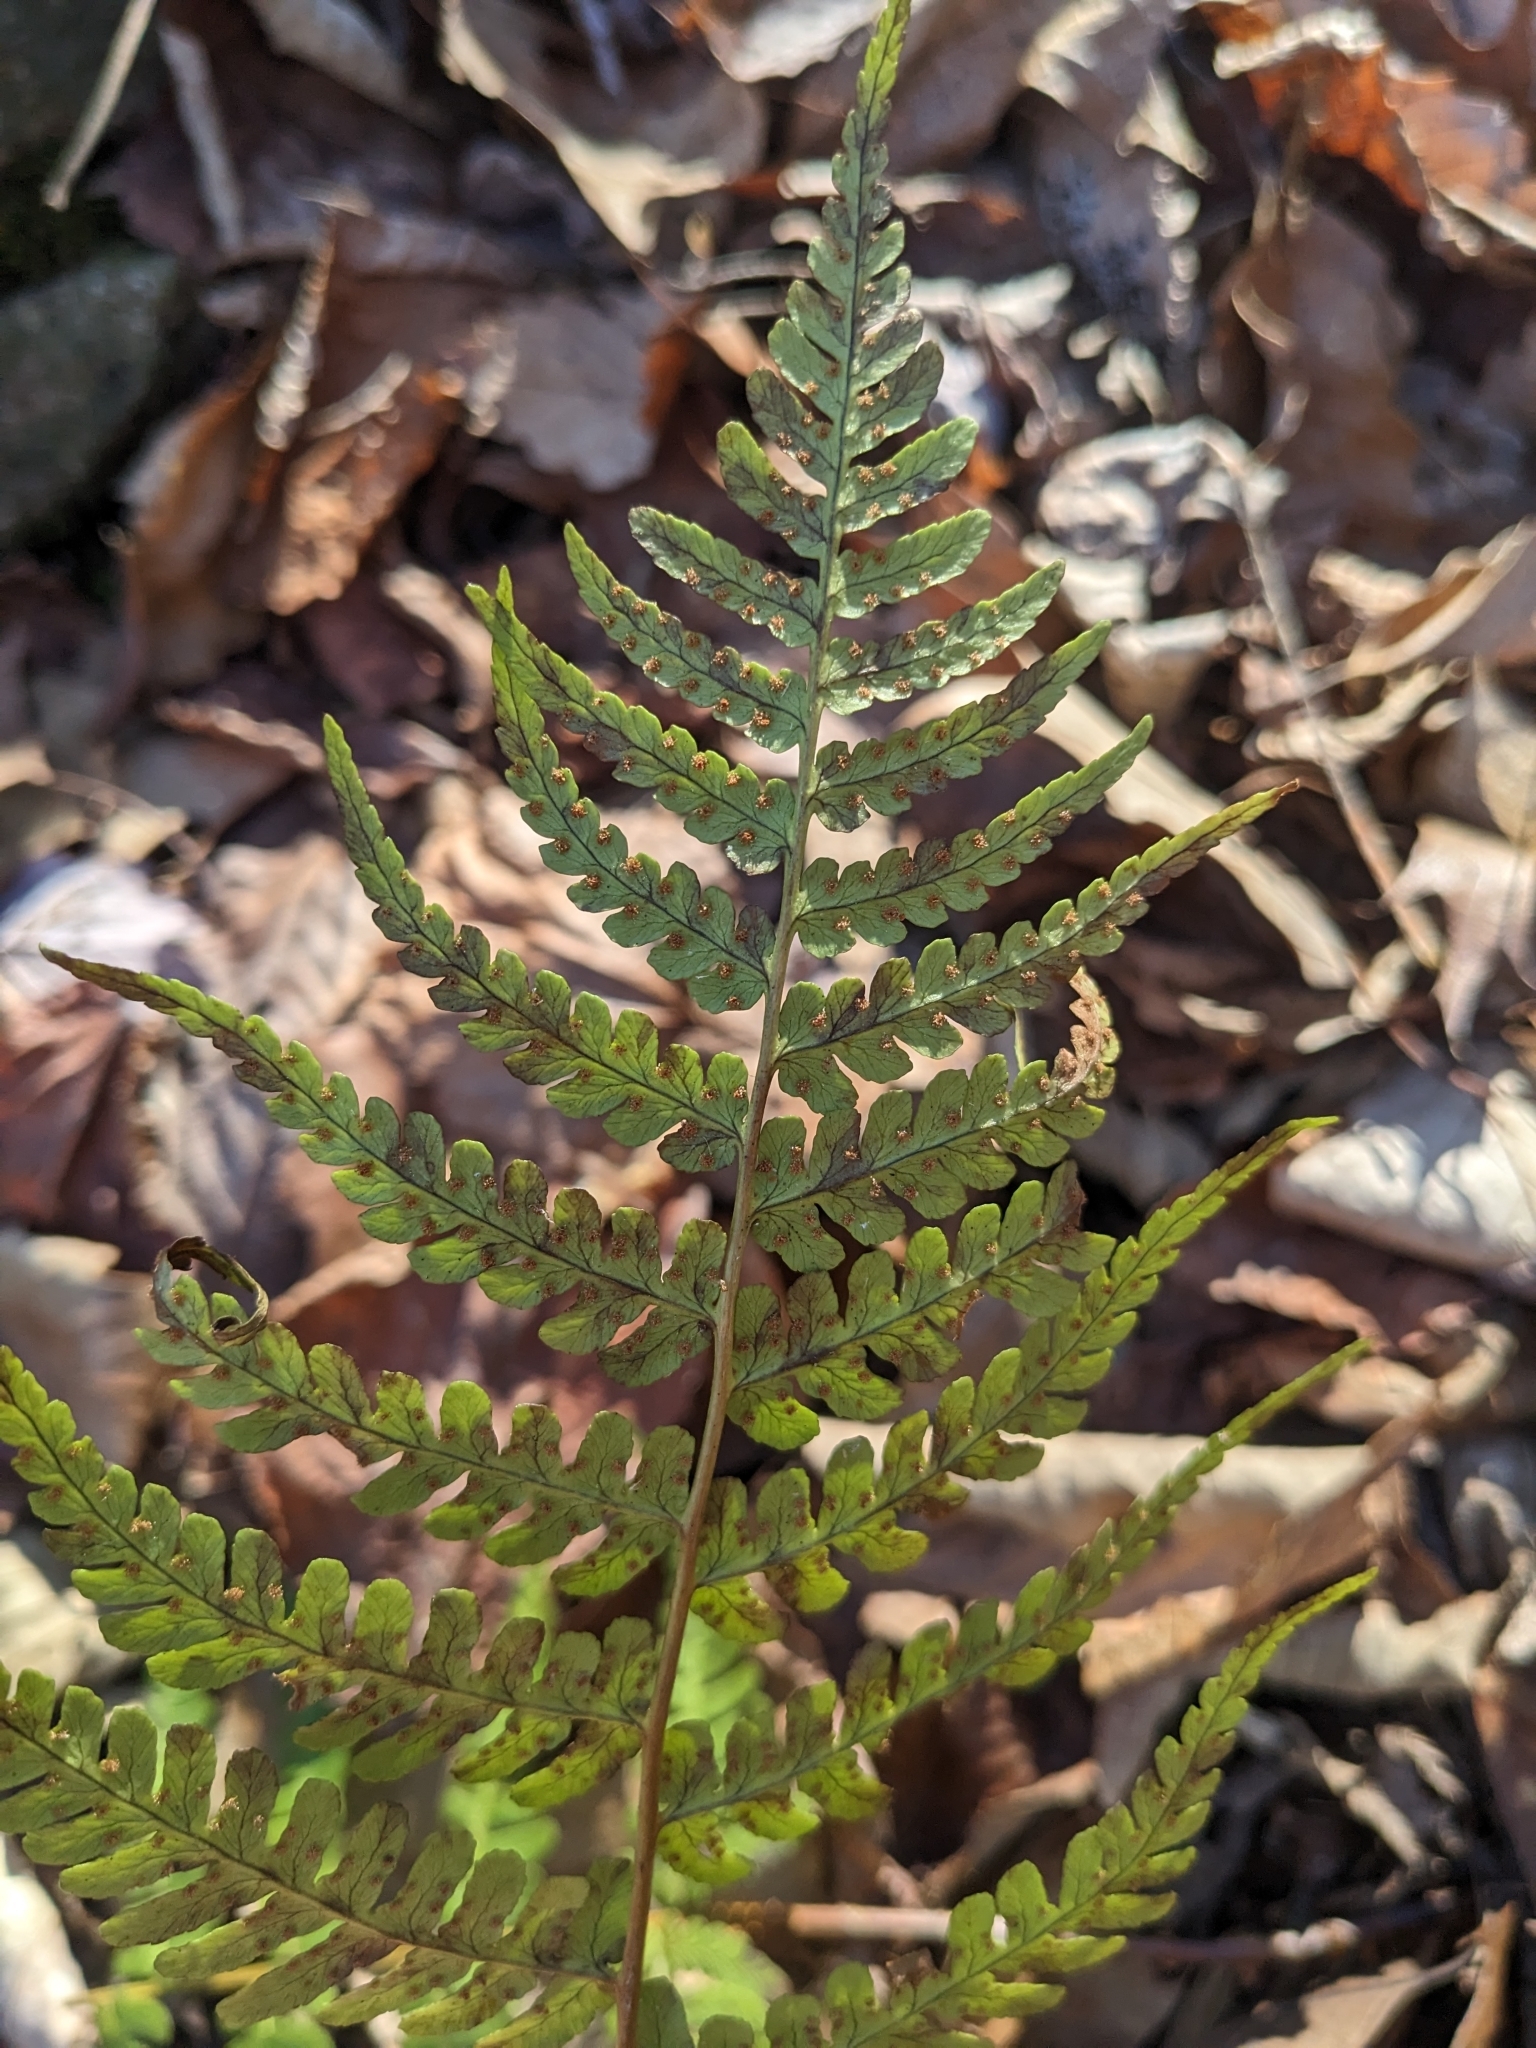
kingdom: Plantae
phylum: Tracheophyta
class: Polypodiopsida
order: Polypodiales
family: Dryopteridaceae
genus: Dryopteris
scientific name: Dryopteris marginalis
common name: Marginal wood fern
